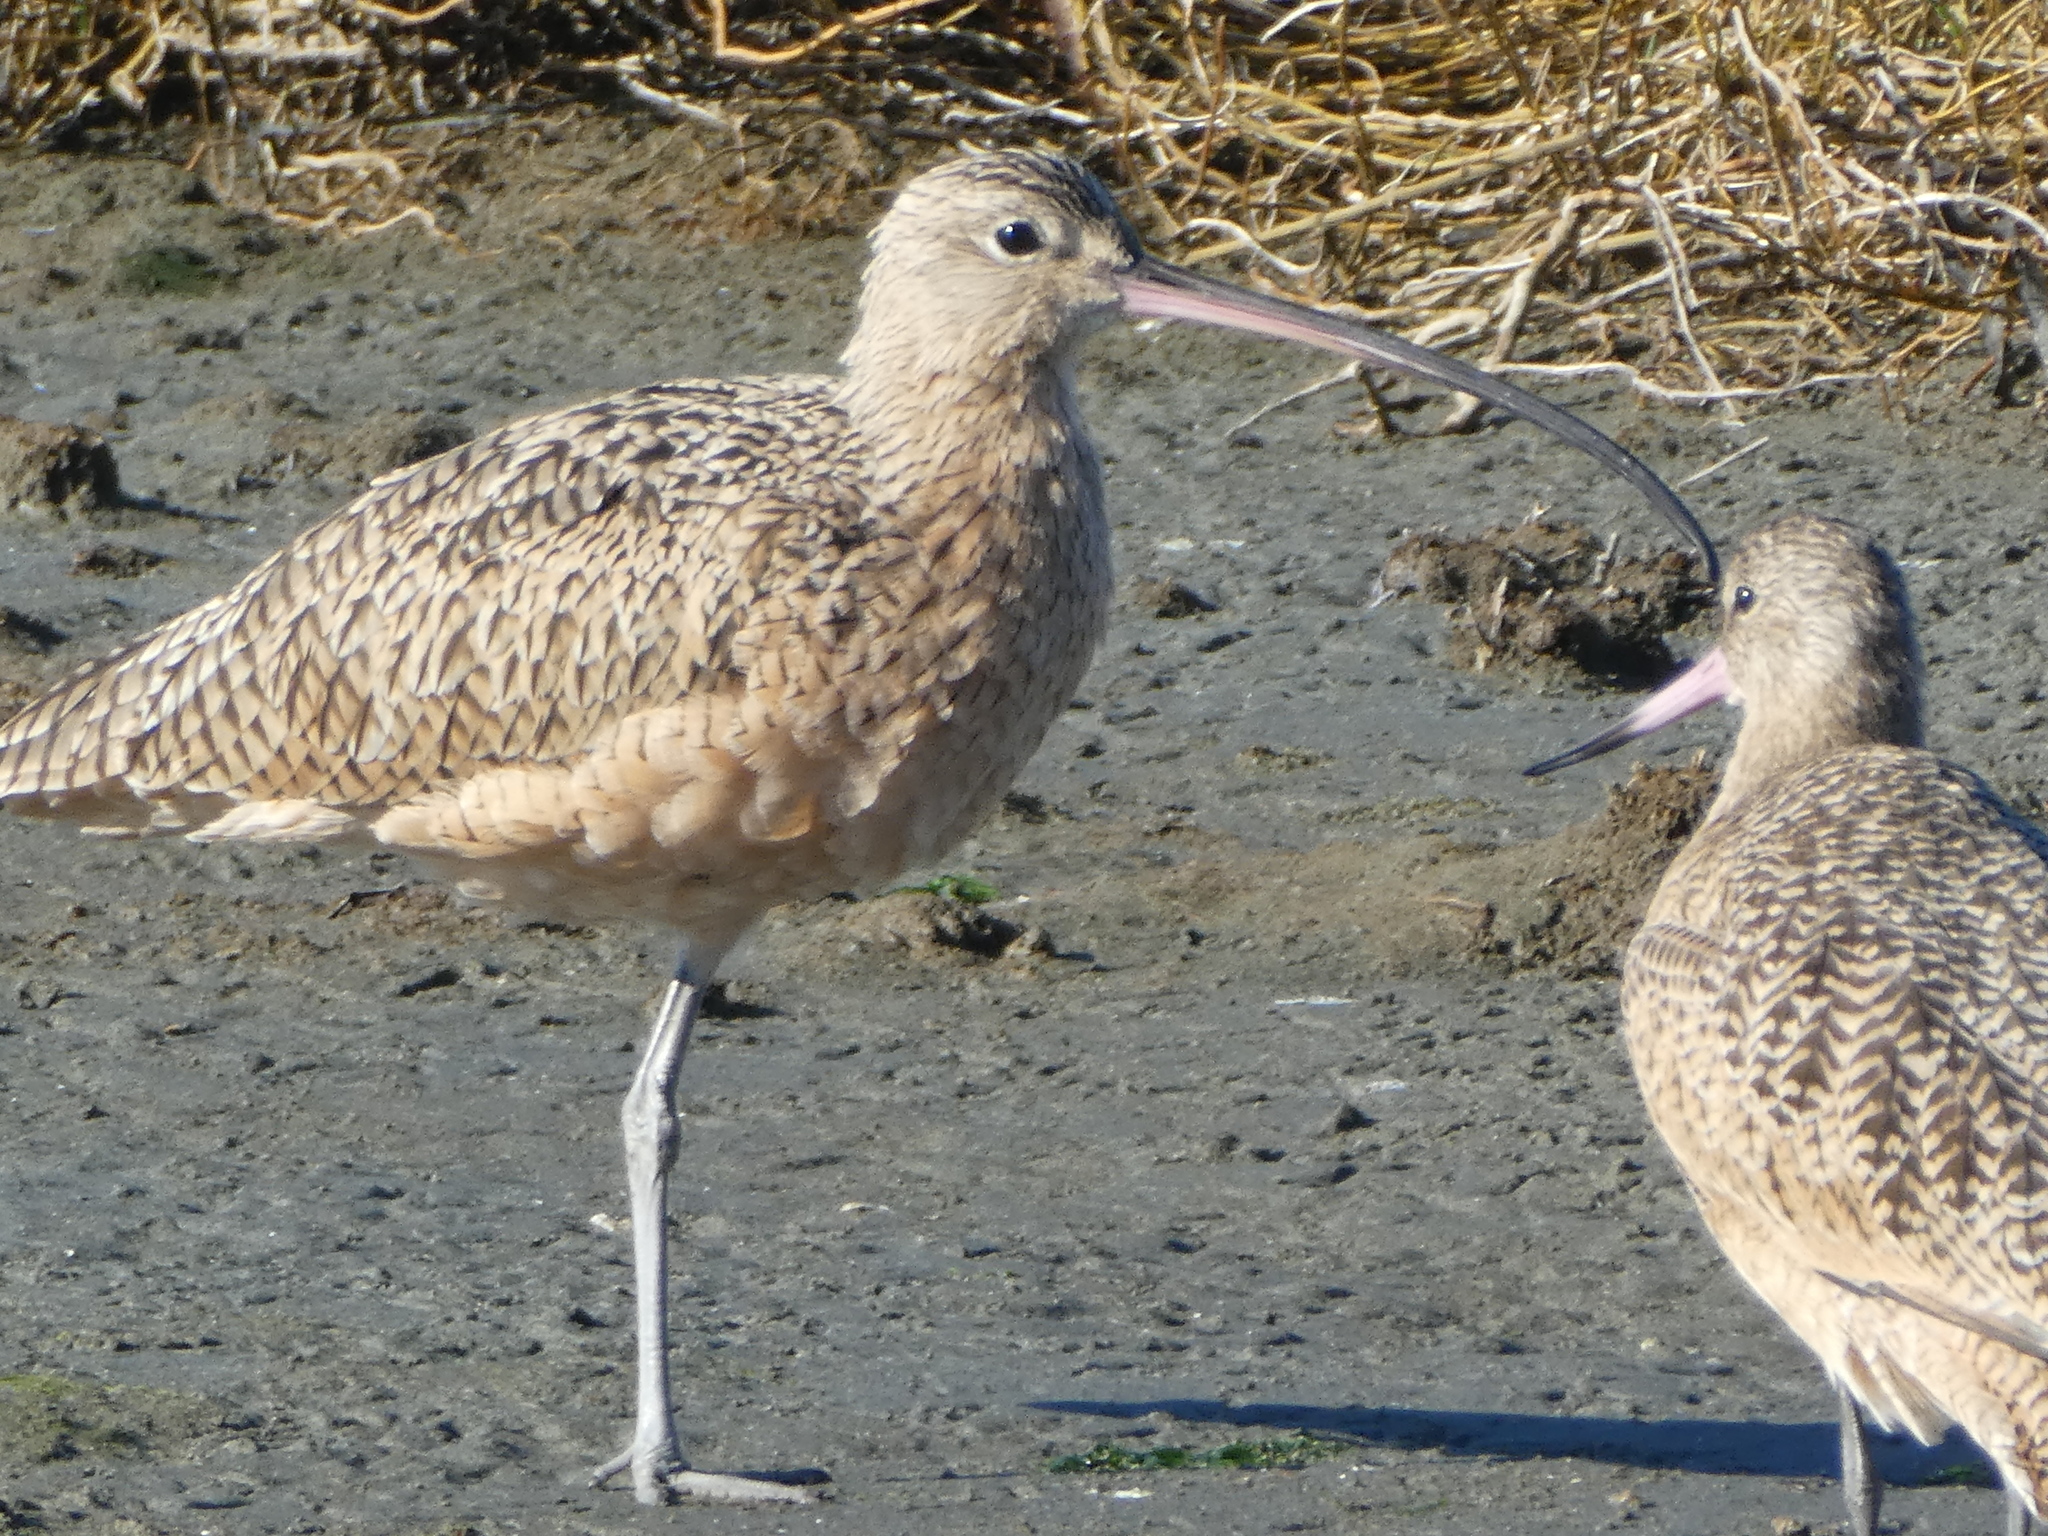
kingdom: Animalia
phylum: Chordata
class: Aves
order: Charadriiformes
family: Scolopacidae
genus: Numenius
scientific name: Numenius americanus
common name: Long-billed curlew
